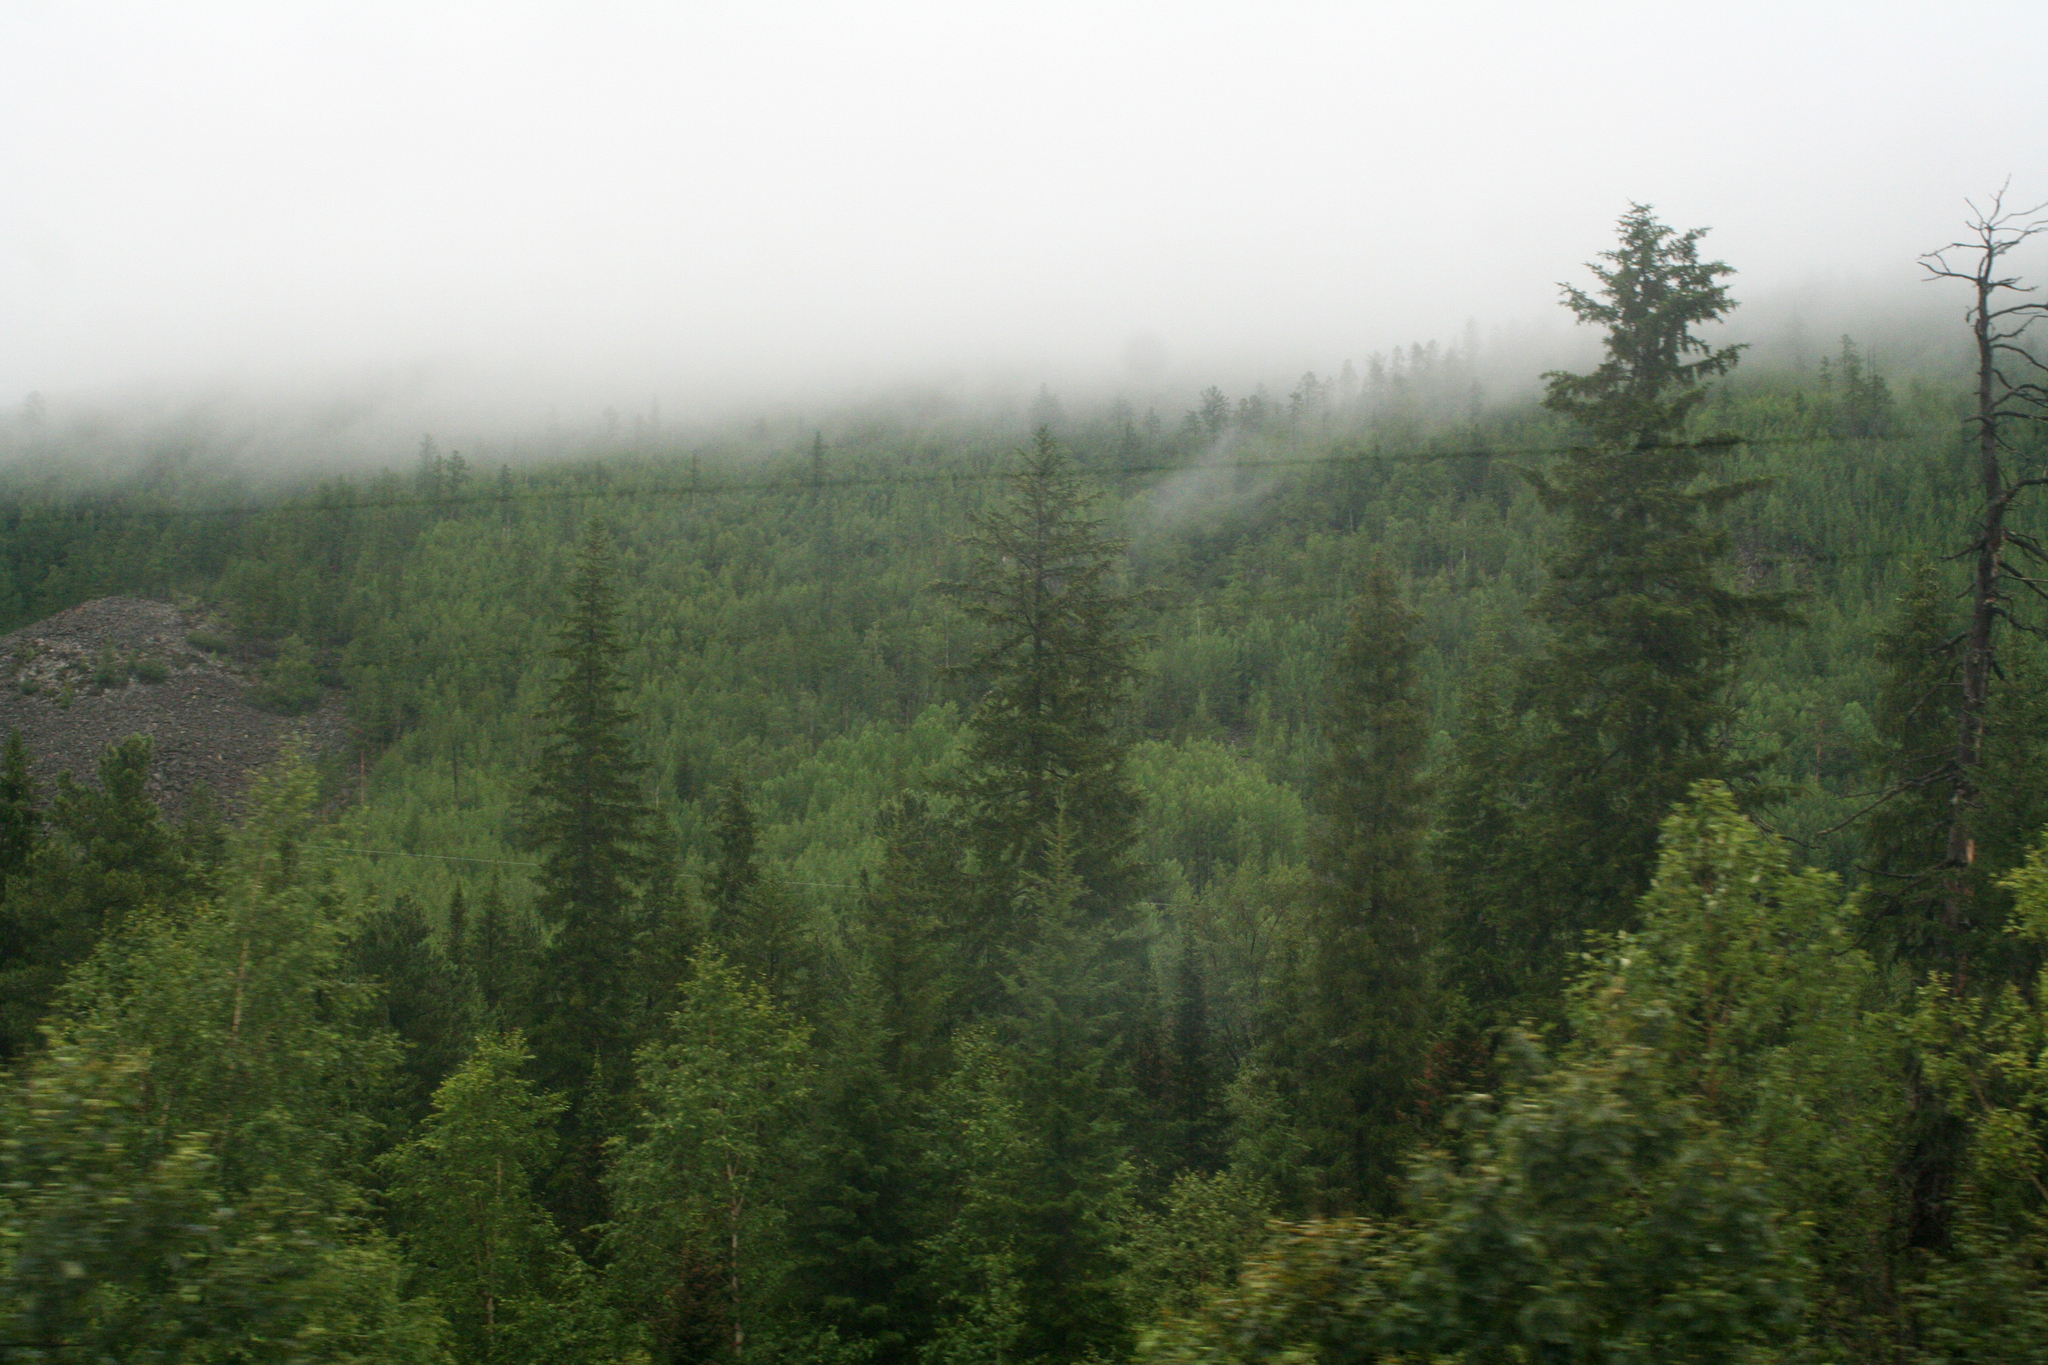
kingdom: Plantae
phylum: Tracheophyta
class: Pinopsida
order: Pinales
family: Pinaceae
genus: Picea
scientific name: Picea obovata
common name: Siberian spruce
